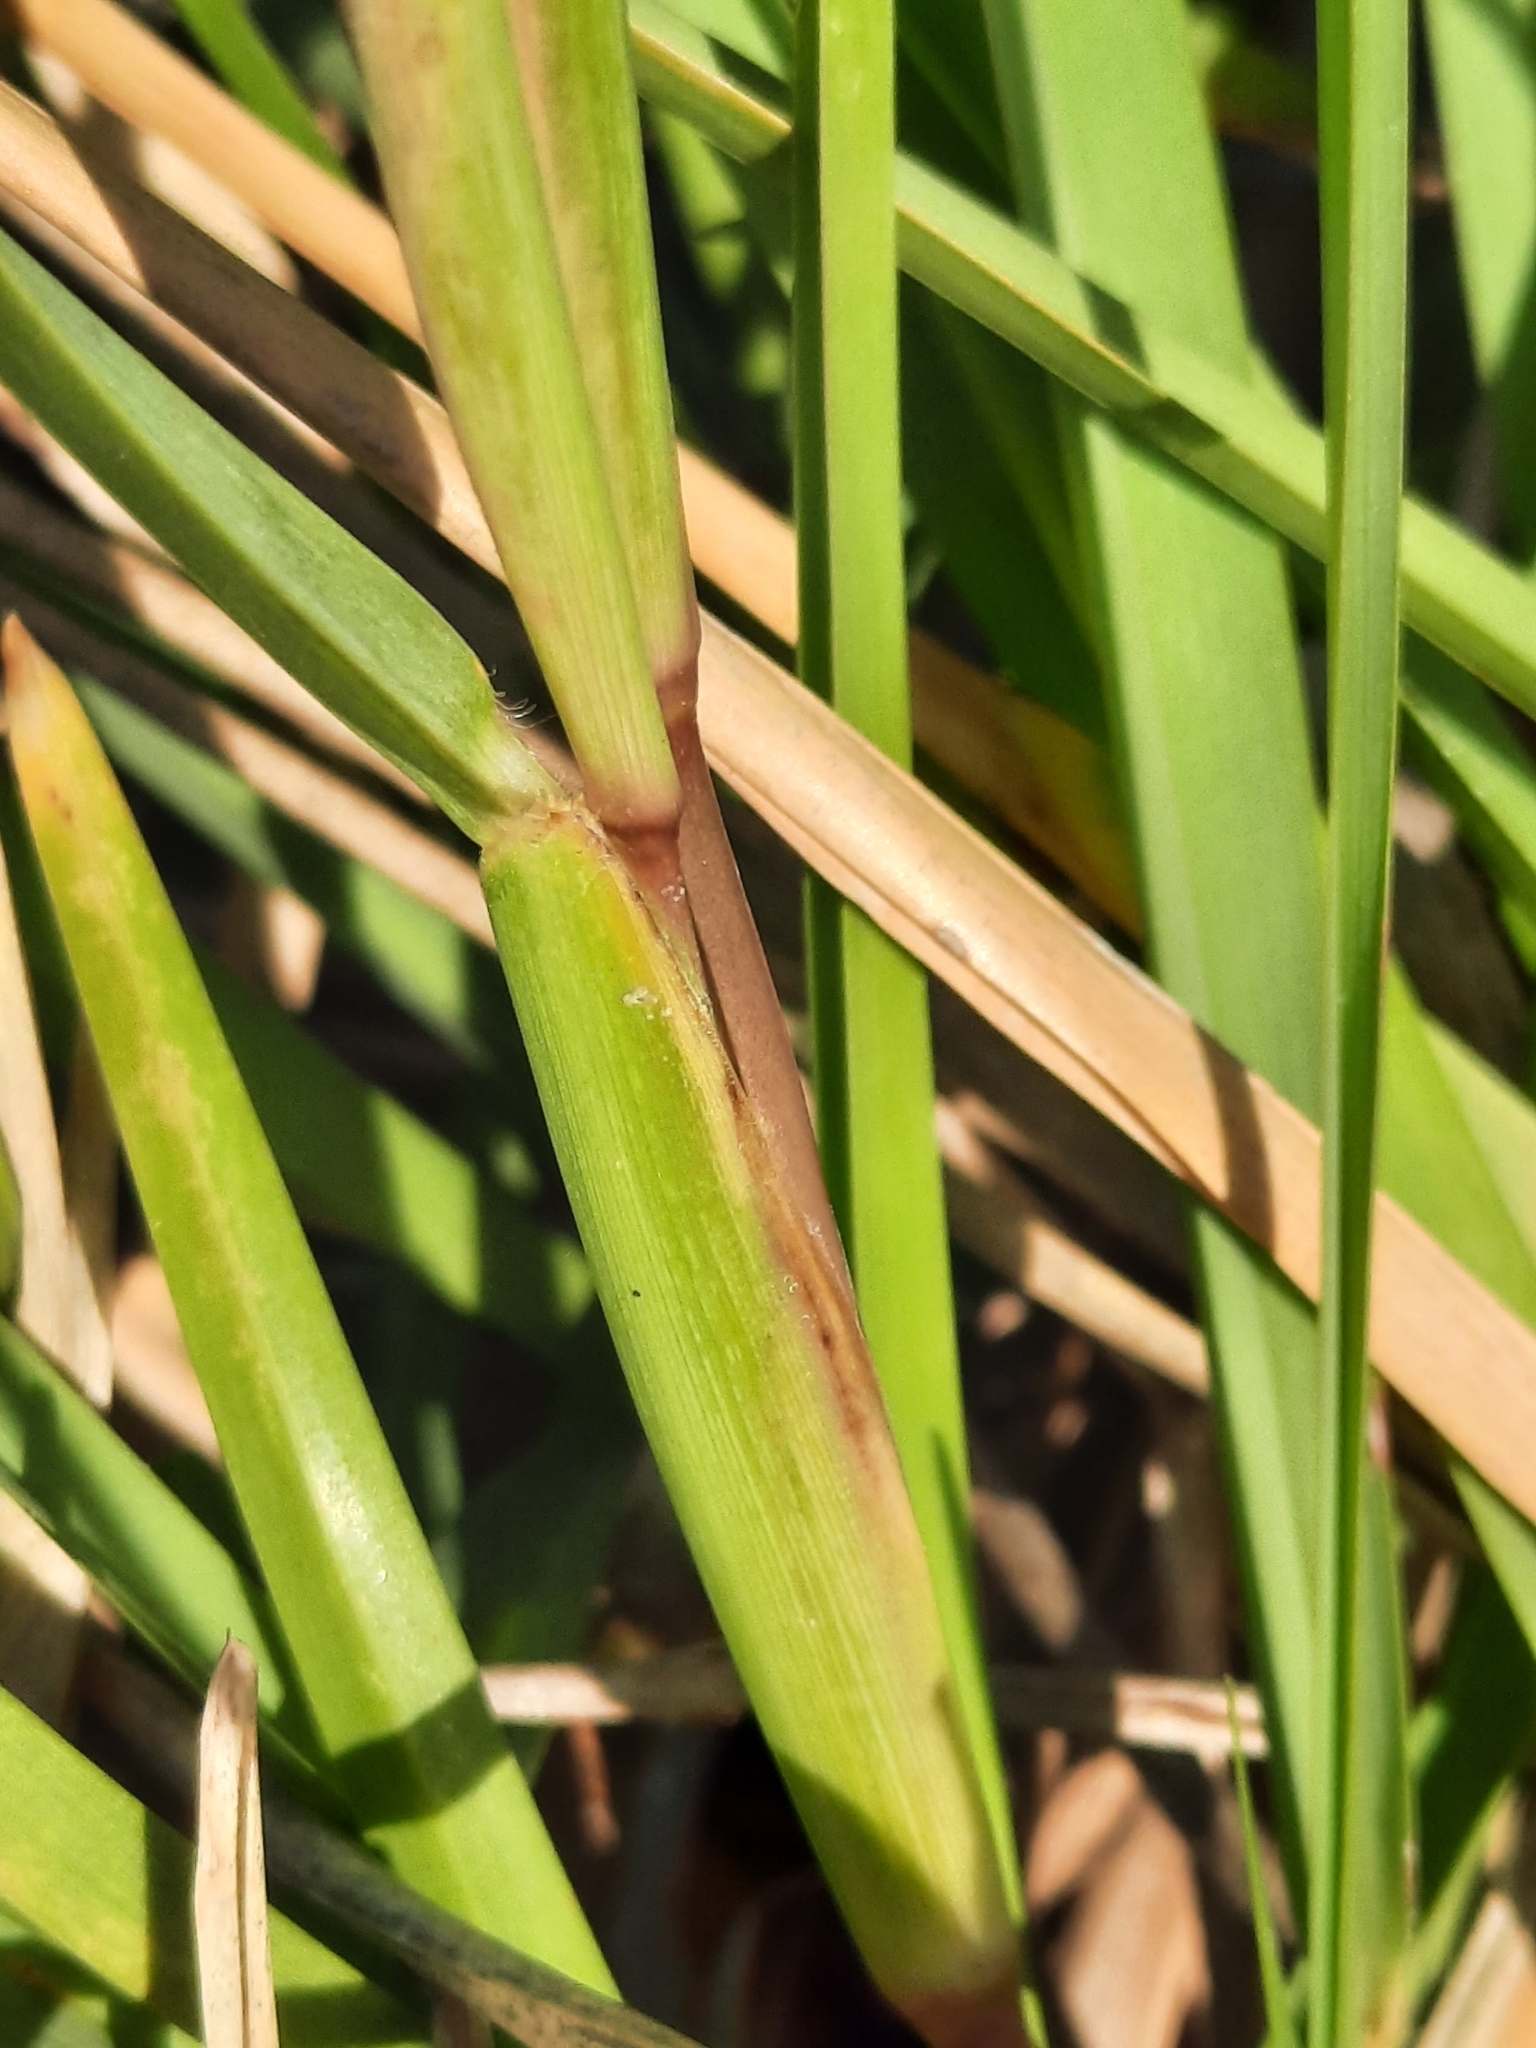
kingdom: Plantae
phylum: Tracheophyta
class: Liliopsida
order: Poales
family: Poaceae
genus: Stenotaphrum
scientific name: Stenotaphrum secundatum
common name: St. augustine grass
